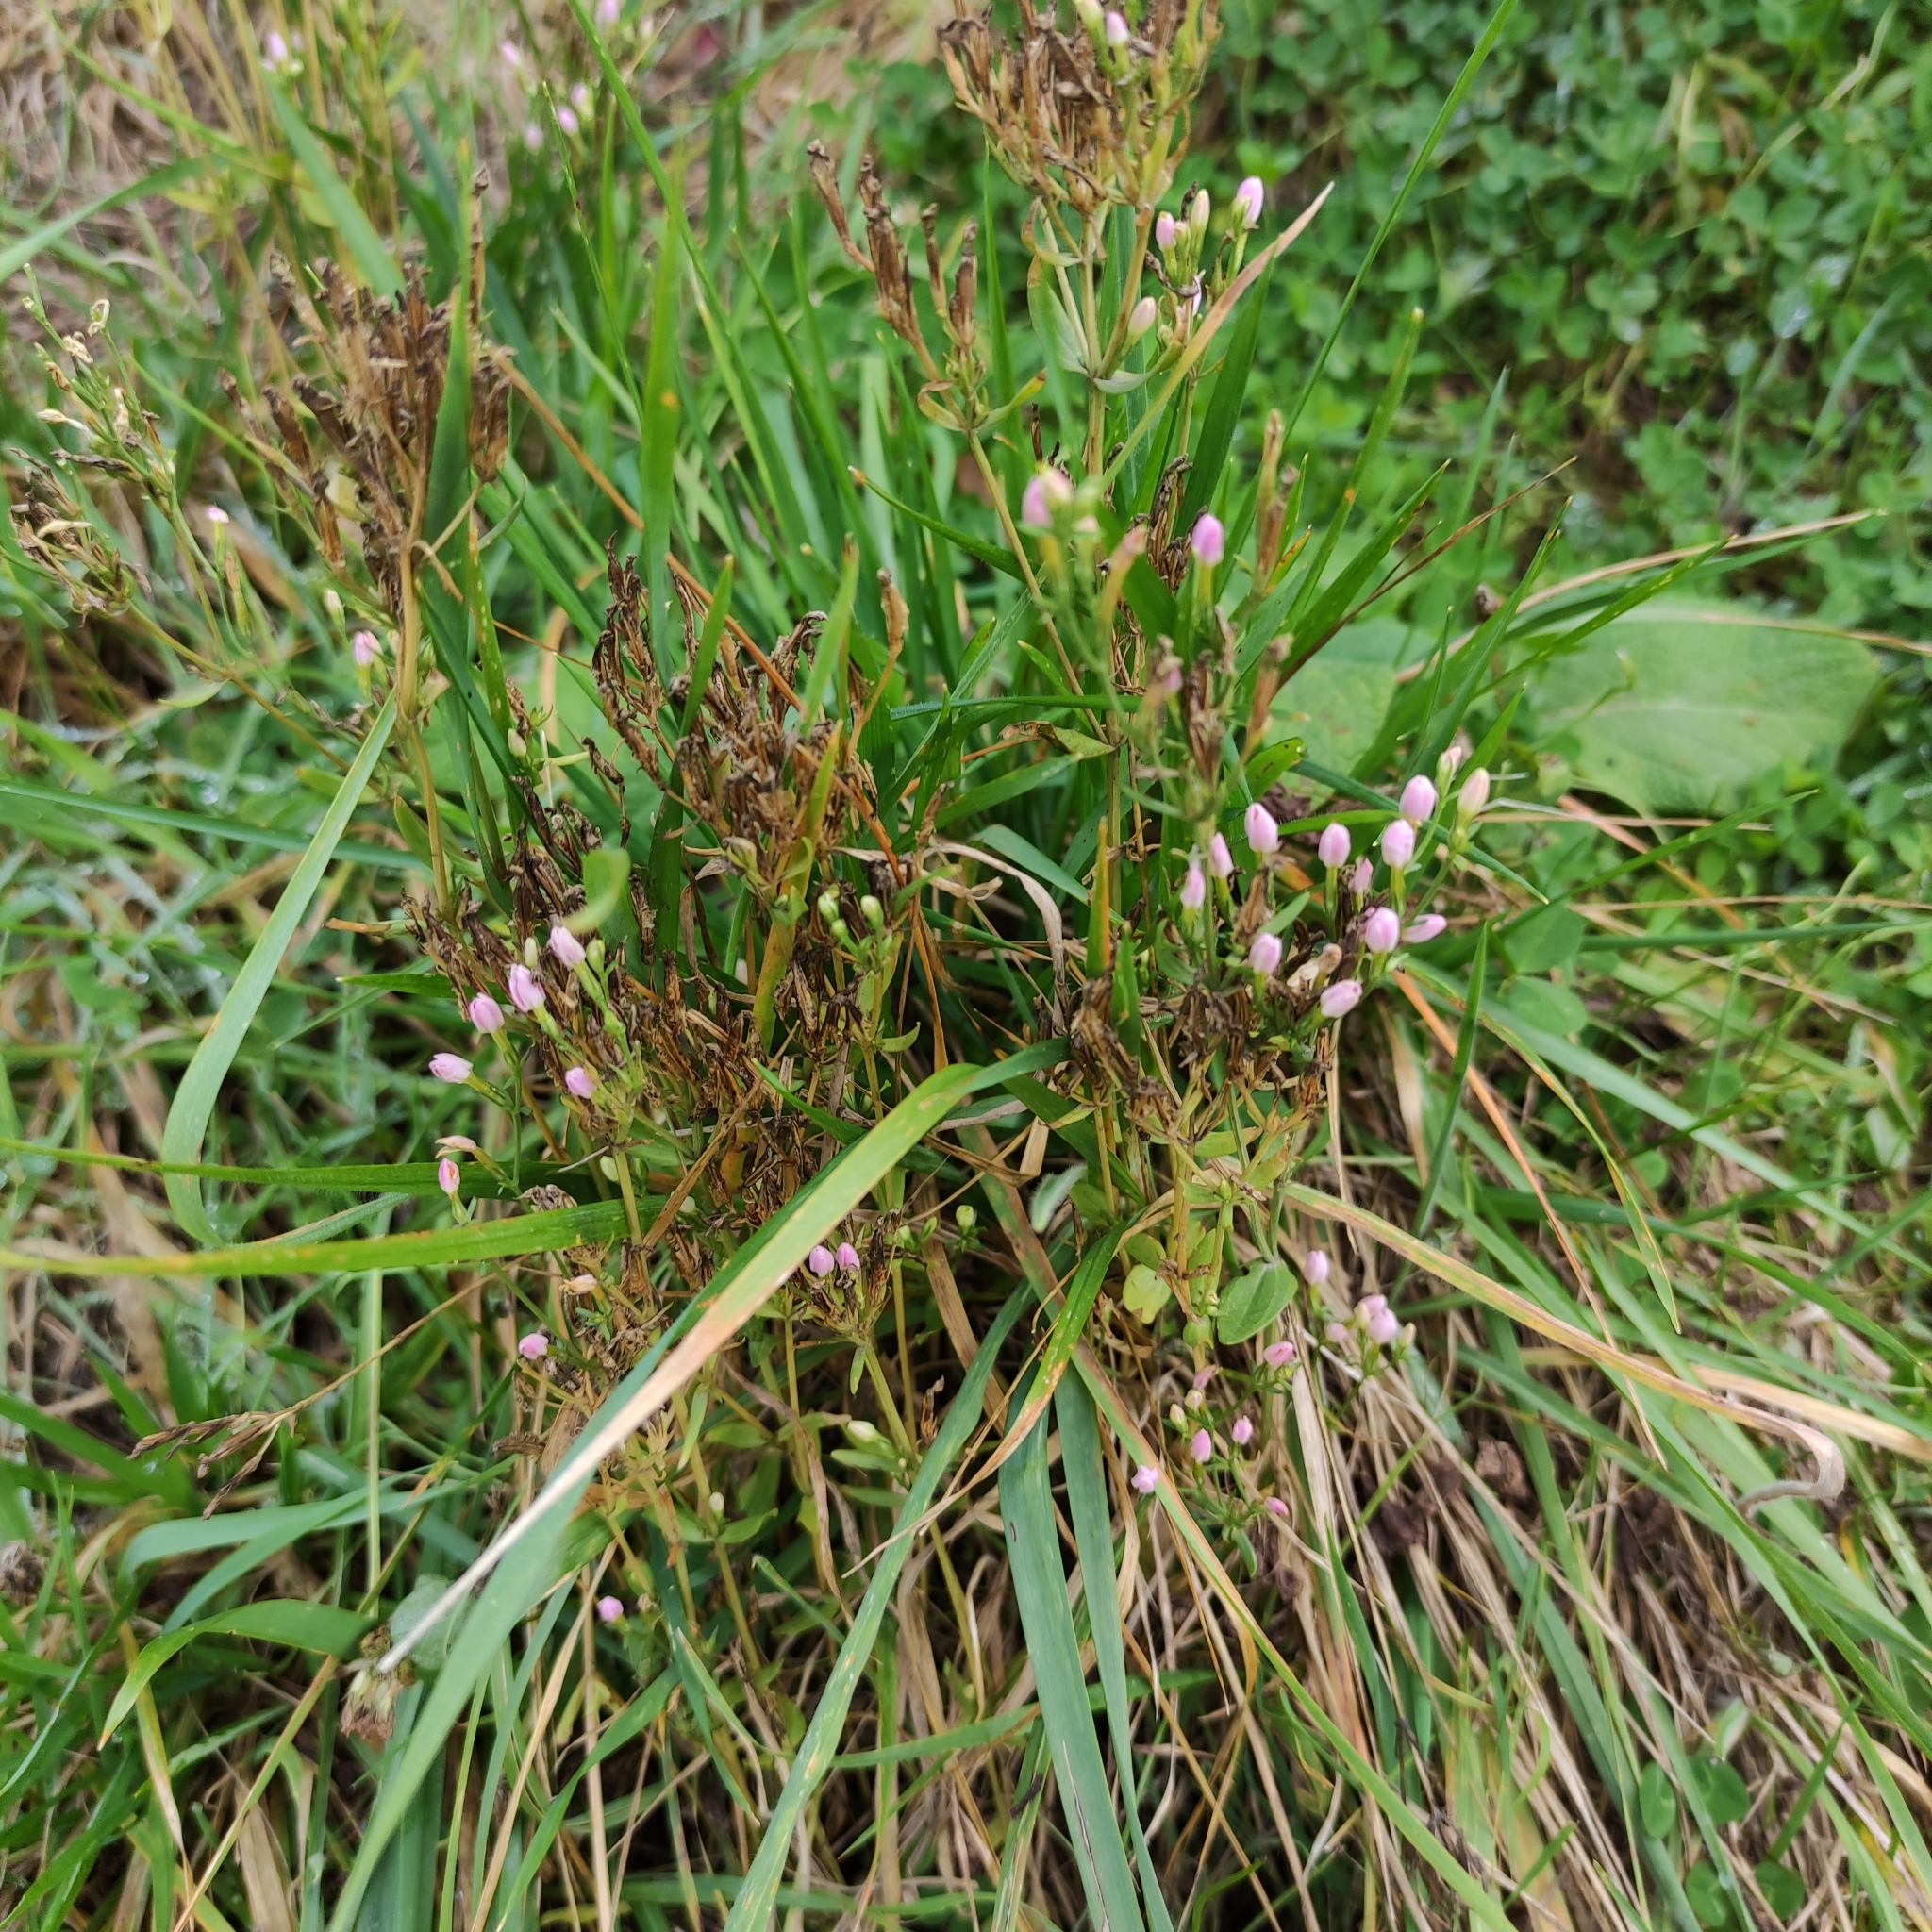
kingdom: Plantae
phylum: Tracheophyta
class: Magnoliopsida
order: Gentianales
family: Gentianaceae
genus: Centaurium
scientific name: Centaurium erythraea
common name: Common centaury
